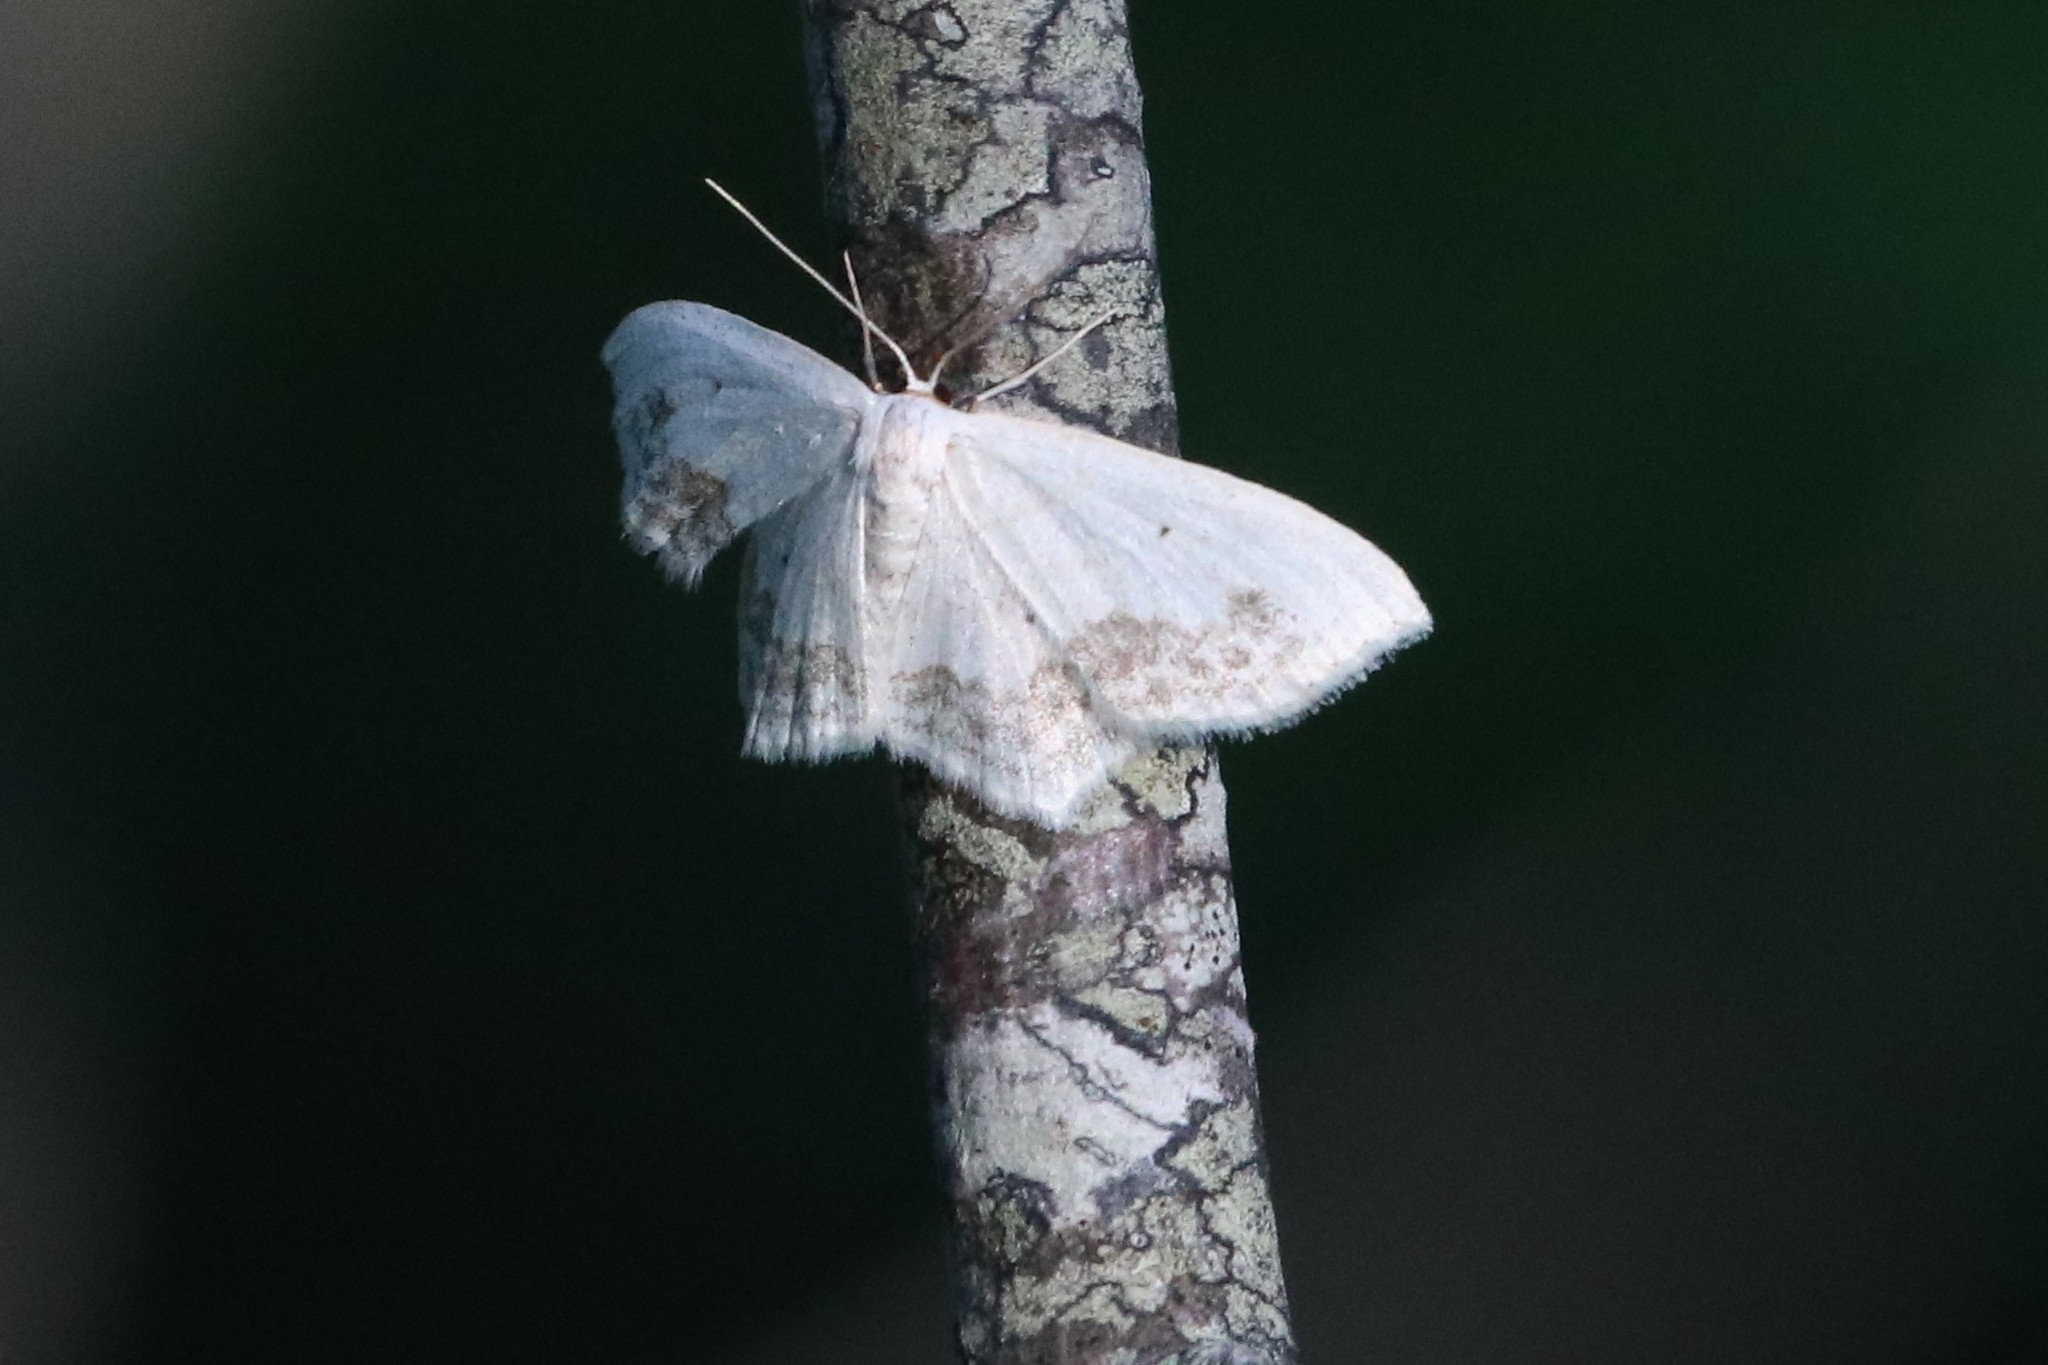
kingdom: Animalia
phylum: Arthropoda
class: Insecta
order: Lepidoptera
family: Geometridae
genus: Scopula
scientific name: Scopula limboundata
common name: Large lace border
